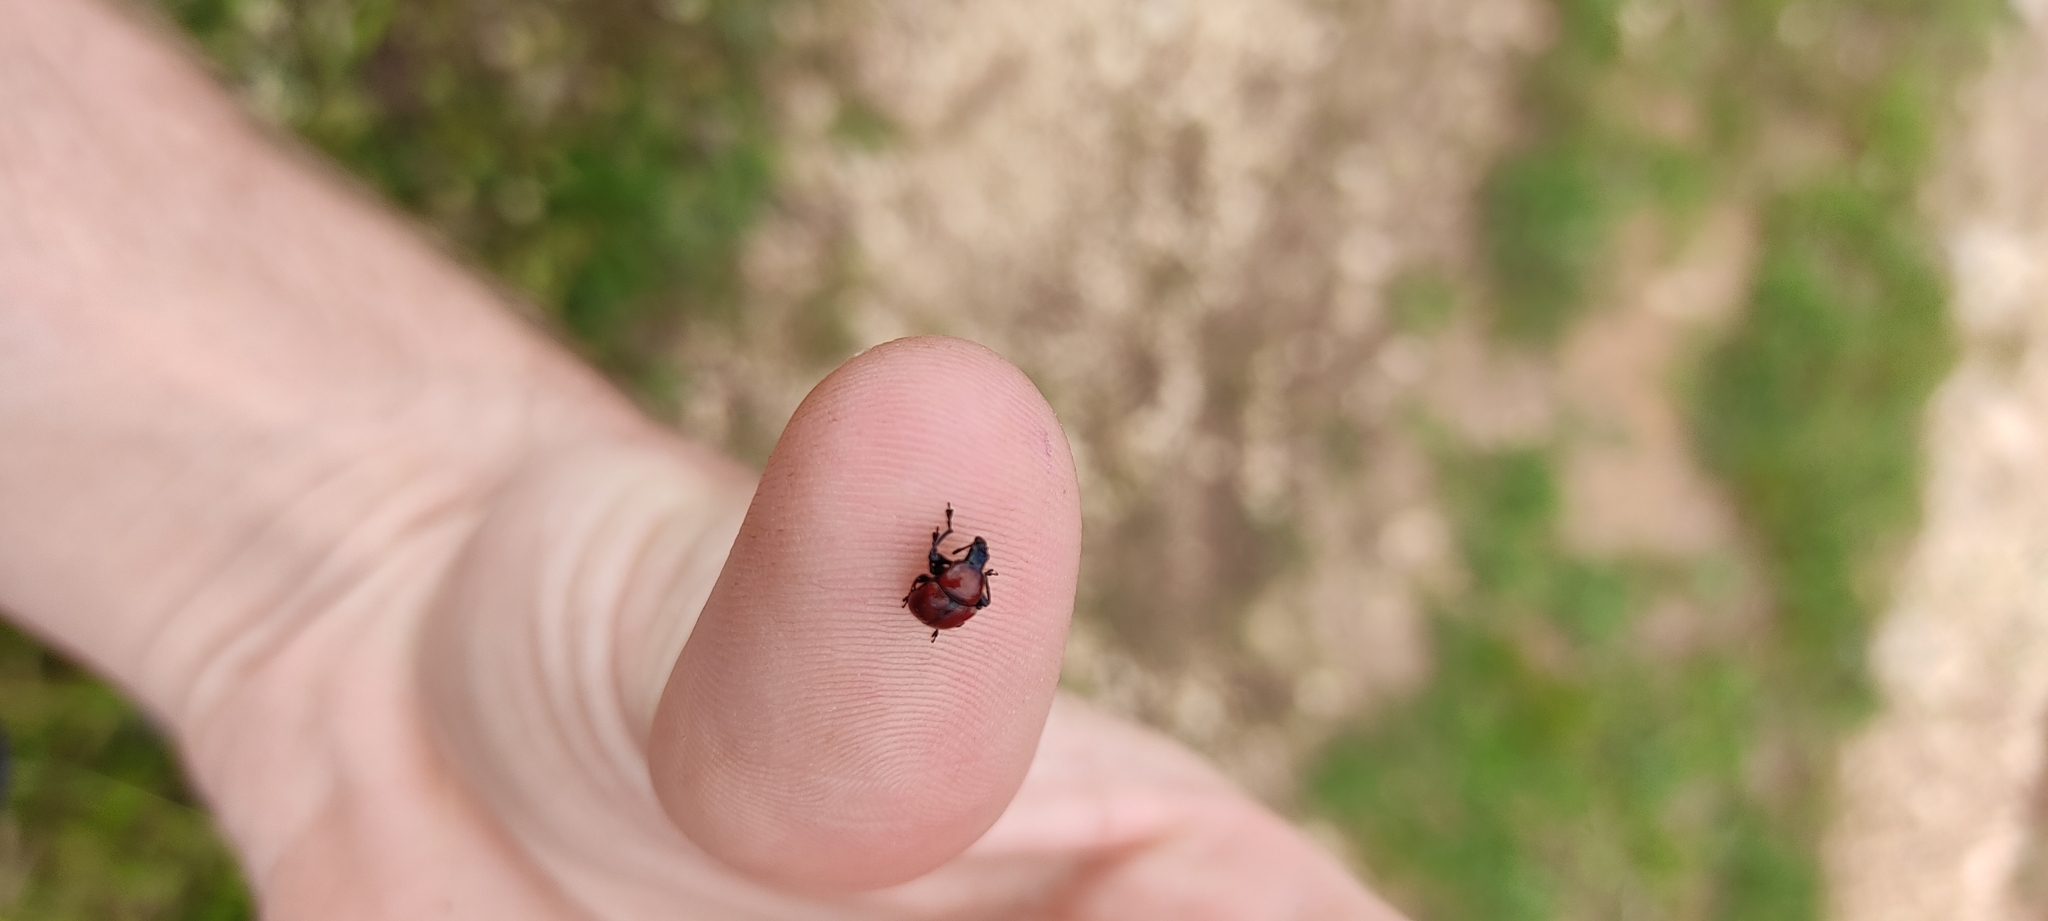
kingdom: Animalia
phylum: Arthropoda
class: Insecta
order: Coleoptera
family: Attelabidae
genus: Attelabus
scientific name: Attelabus nitens
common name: Oak leaf-roller
